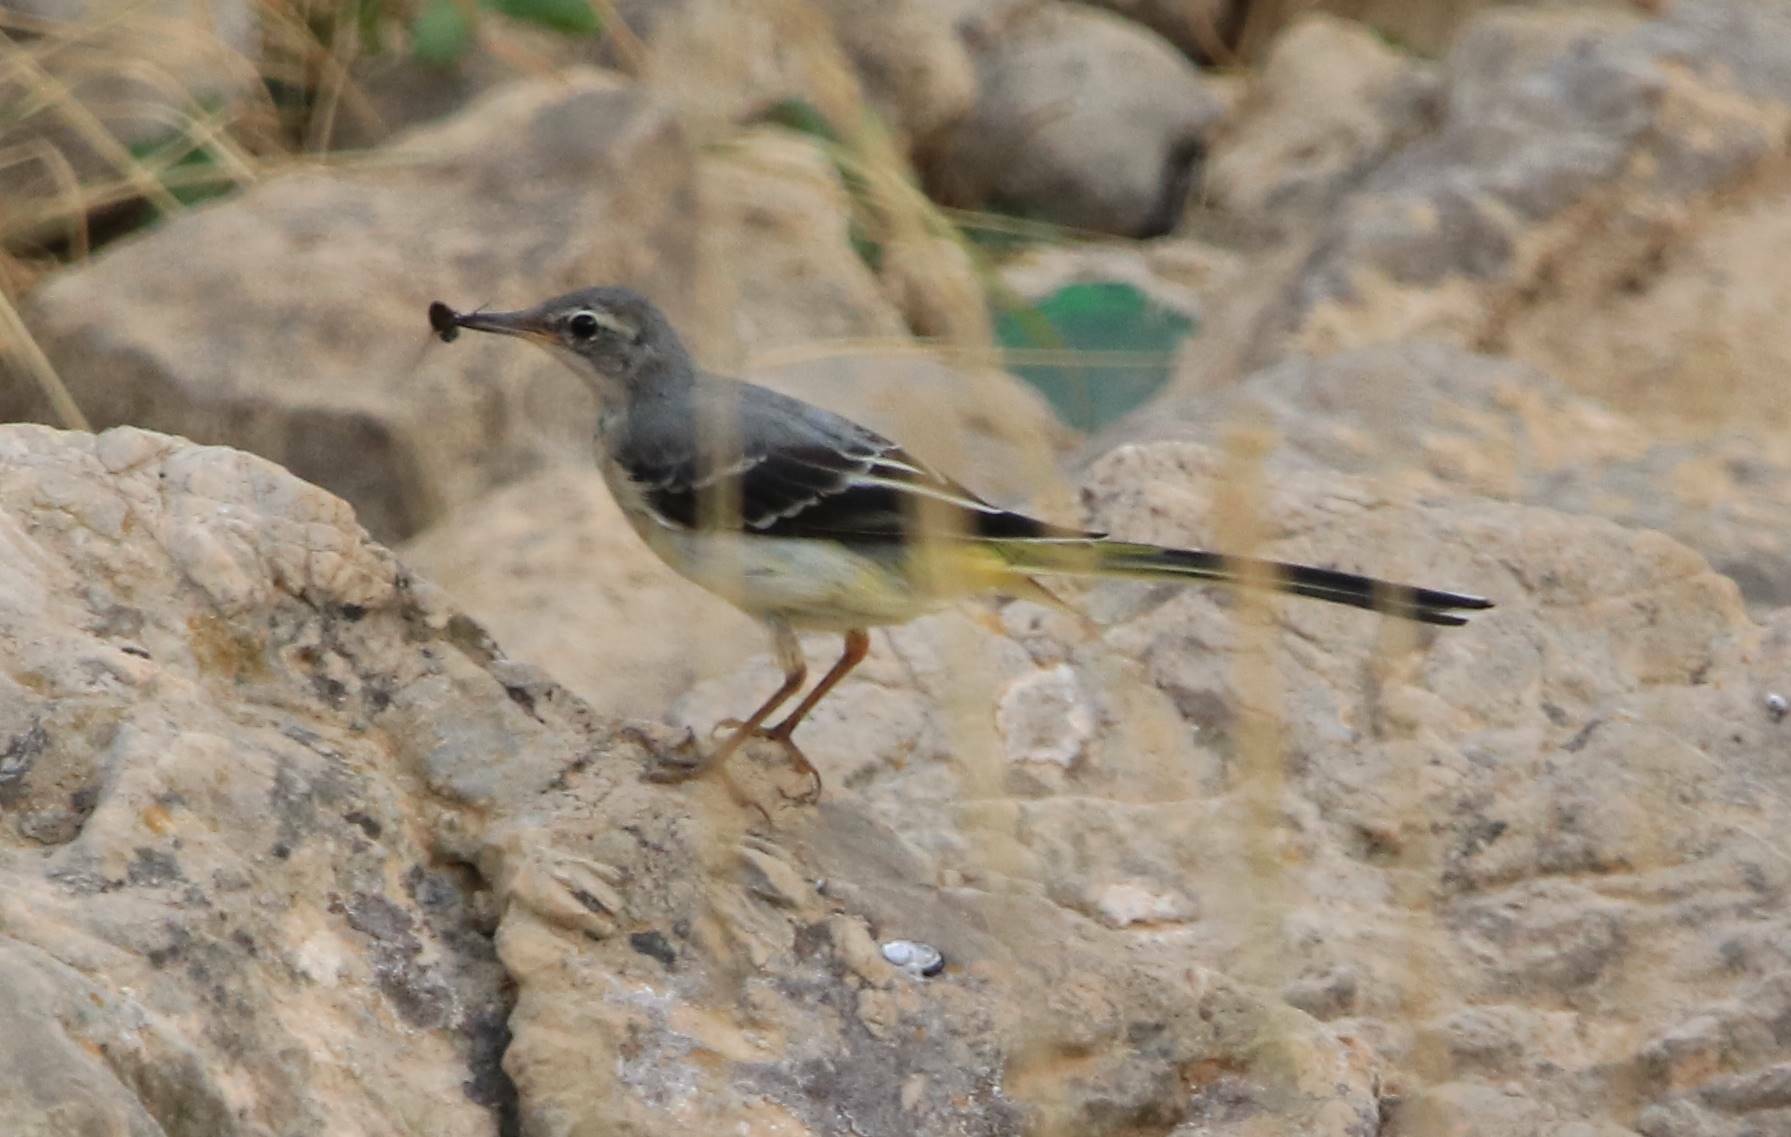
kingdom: Animalia
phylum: Chordata
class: Aves
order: Passeriformes
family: Motacillidae
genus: Motacilla
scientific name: Motacilla cinerea
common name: Grey wagtail
